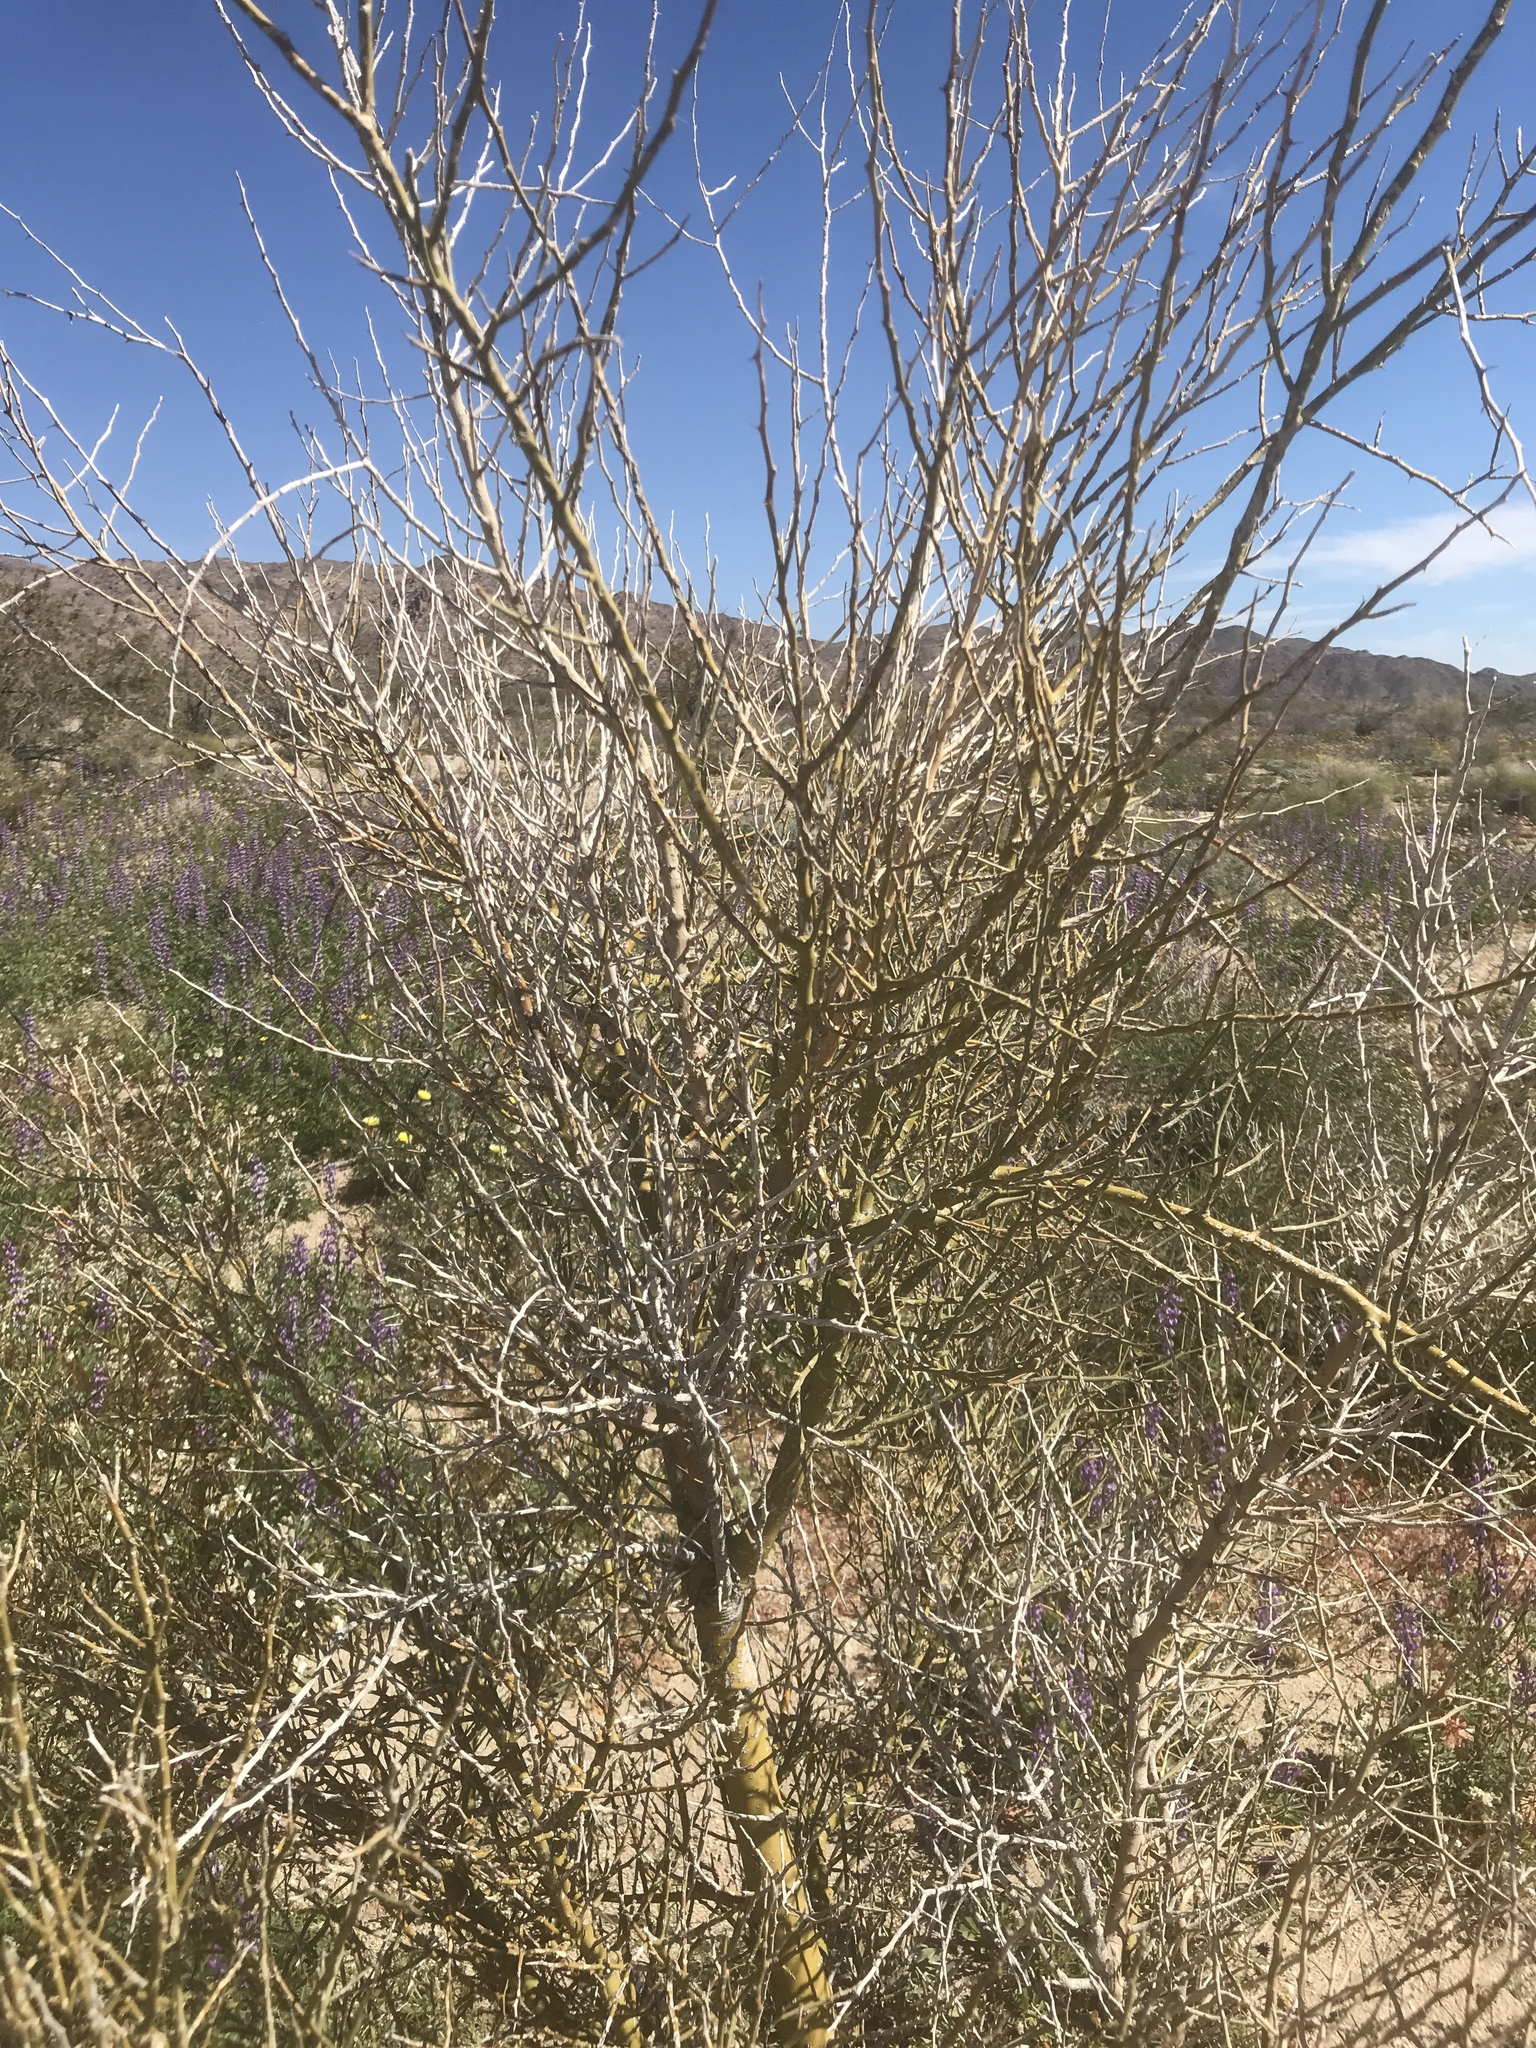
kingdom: Plantae
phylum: Tracheophyta
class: Magnoliopsida
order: Fabales
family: Fabaceae
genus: Parkinsonia
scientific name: Parkinsonia florida
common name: Blue paloverde
